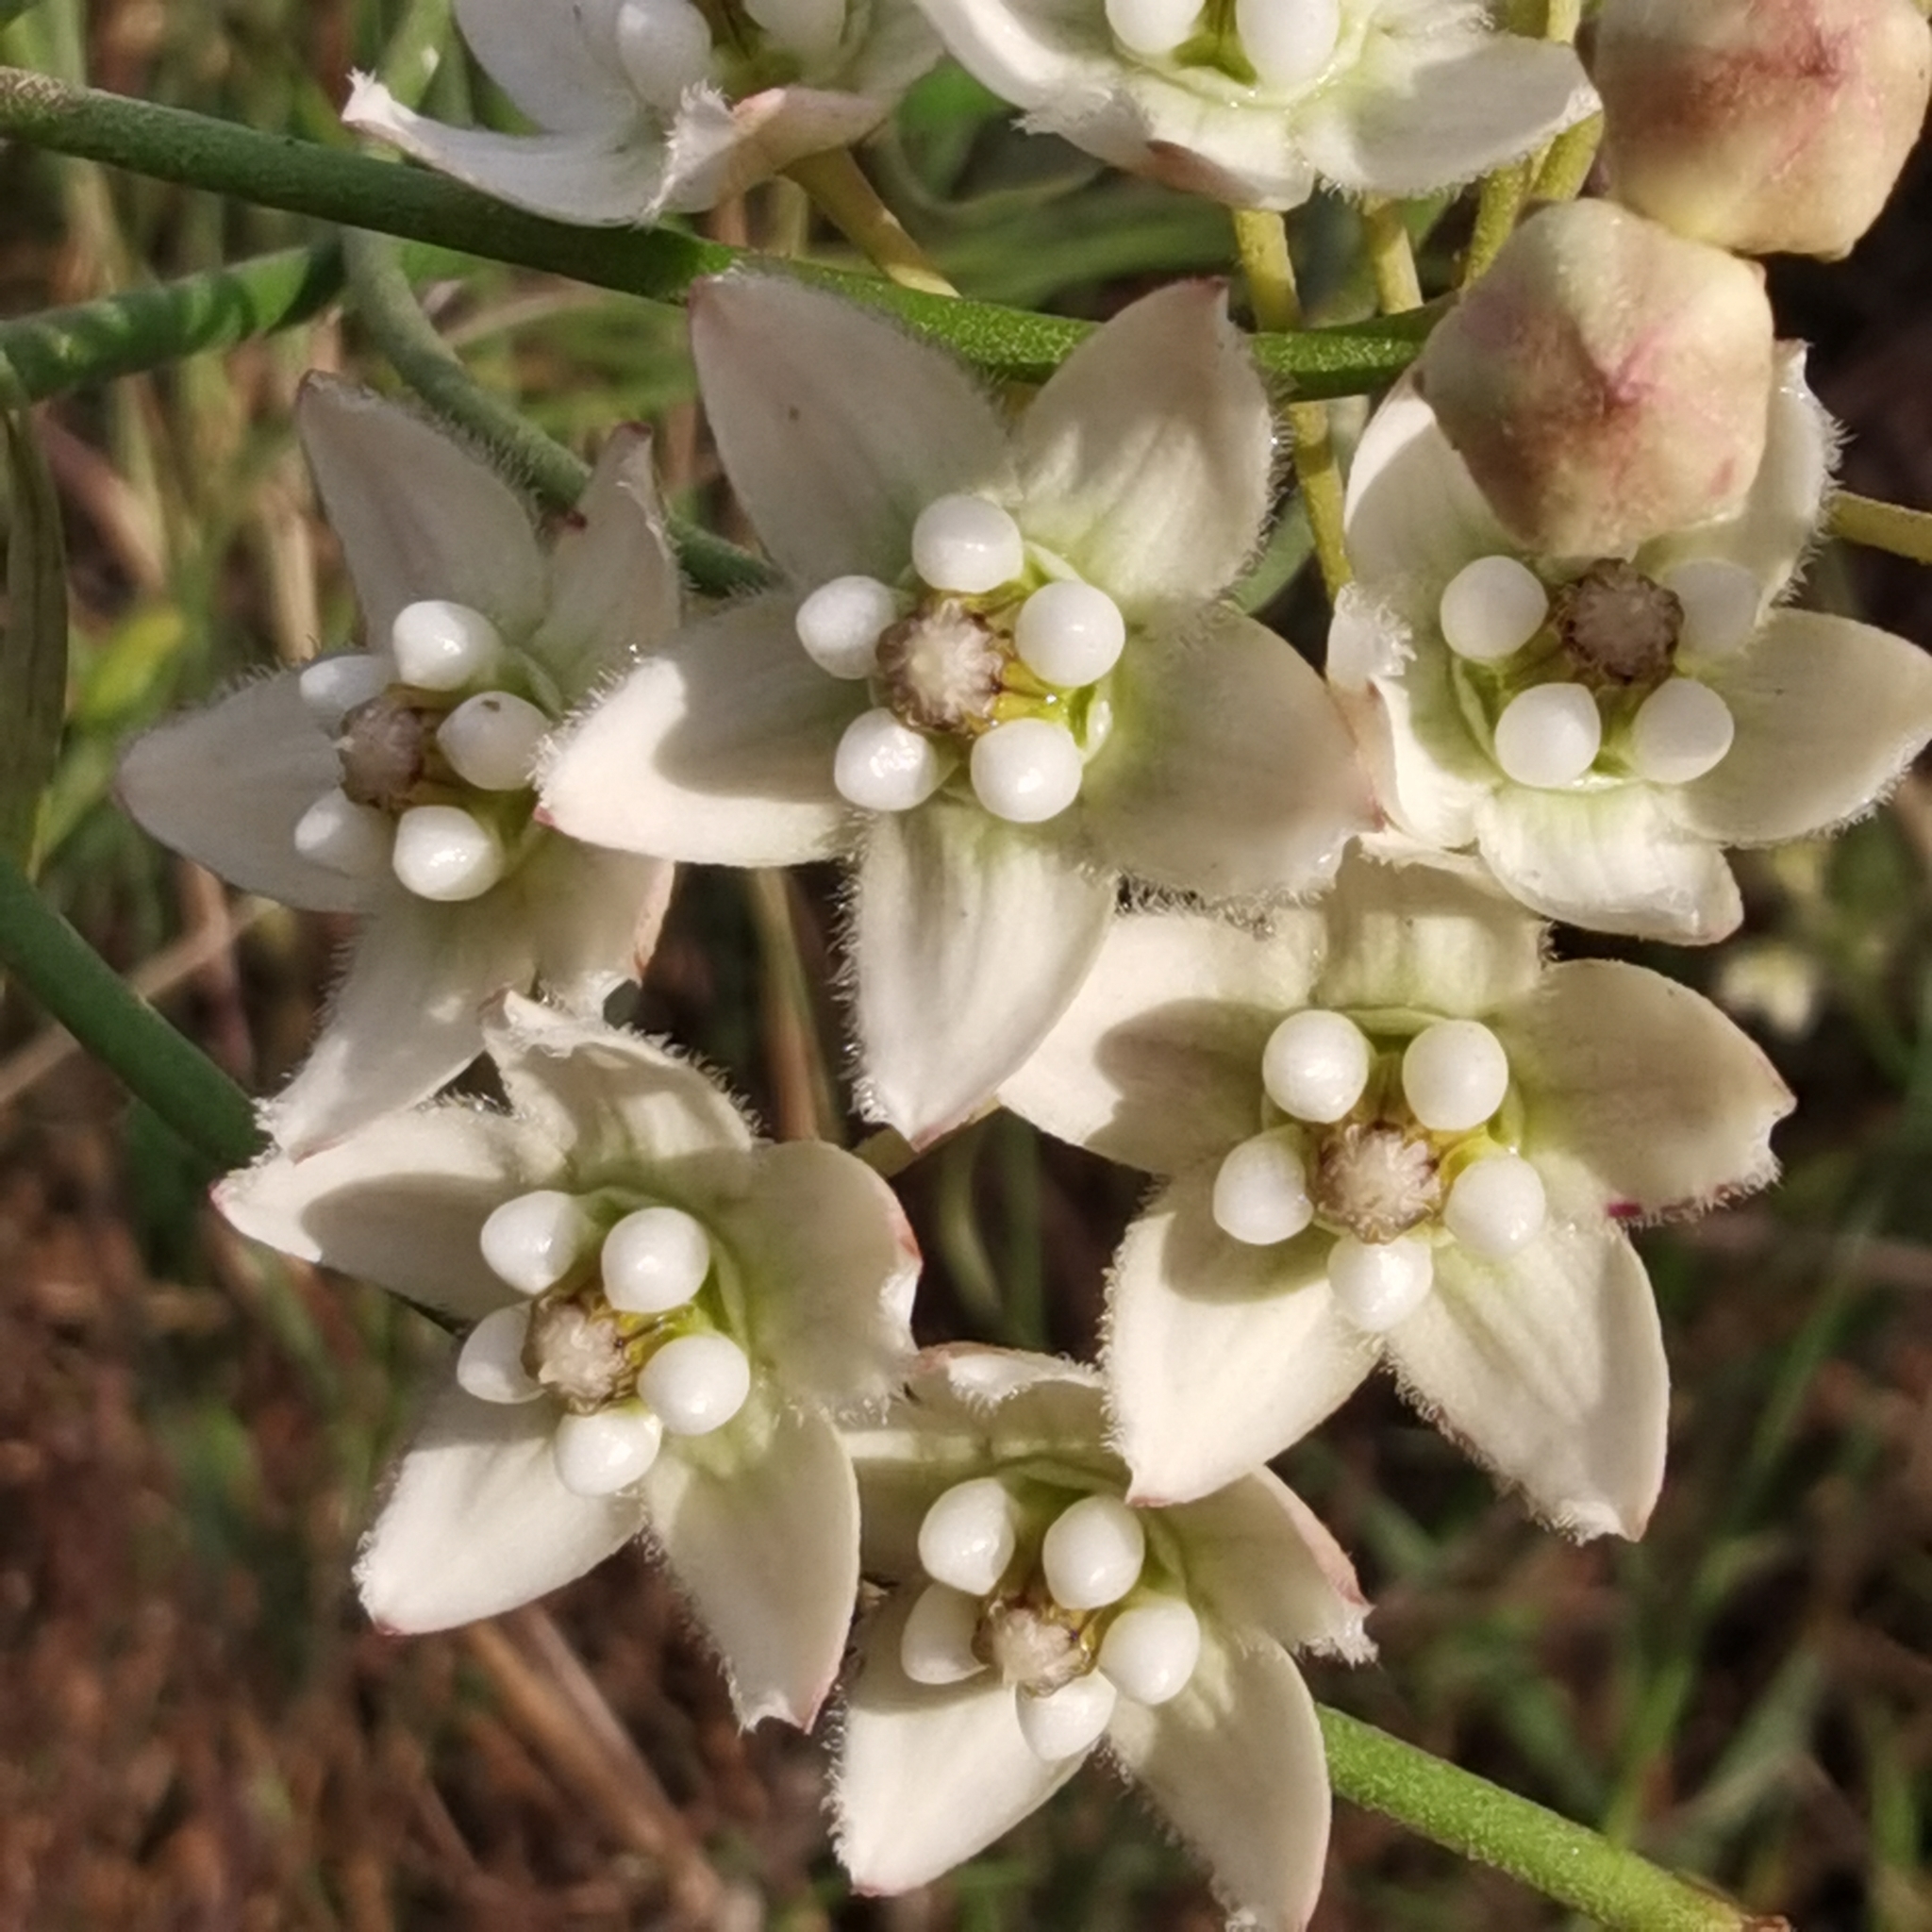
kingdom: Plantae
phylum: Tracheophyta
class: Magnoliopsida
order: Gentianales
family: Apocynaceae
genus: Funastrum
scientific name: Funastrum clausum
